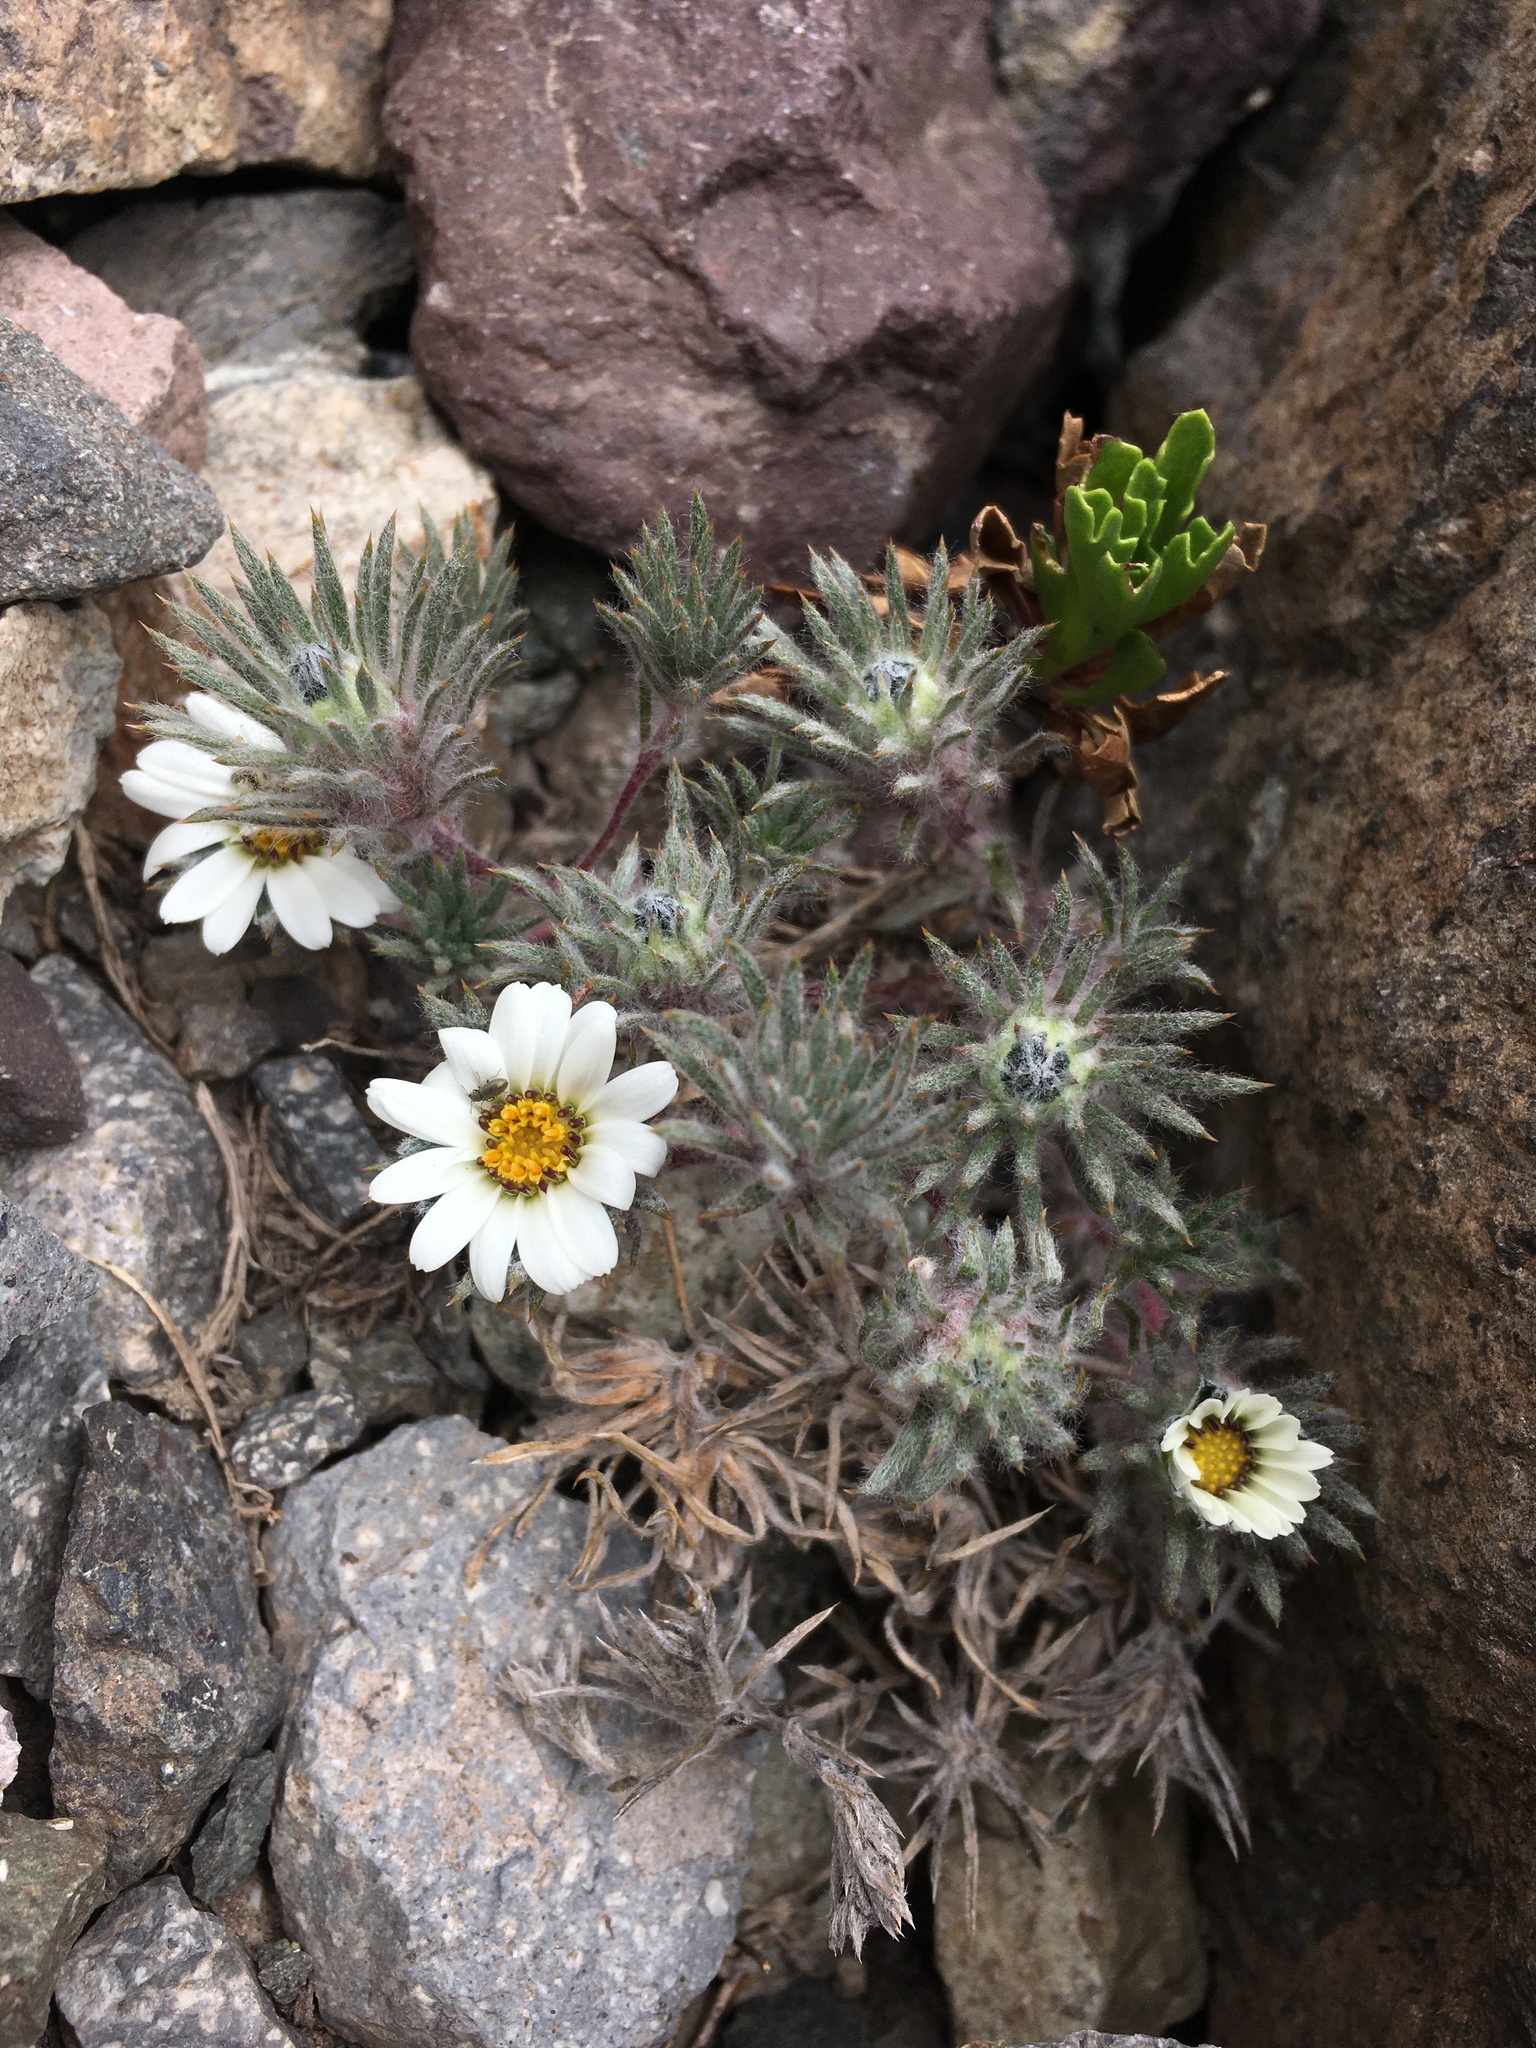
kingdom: Plantae
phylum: Tracheophyta
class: Magnoliopsida
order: Asterales
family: Asteraceae
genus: Oriastrum
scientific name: Oriastrum apiculatum
